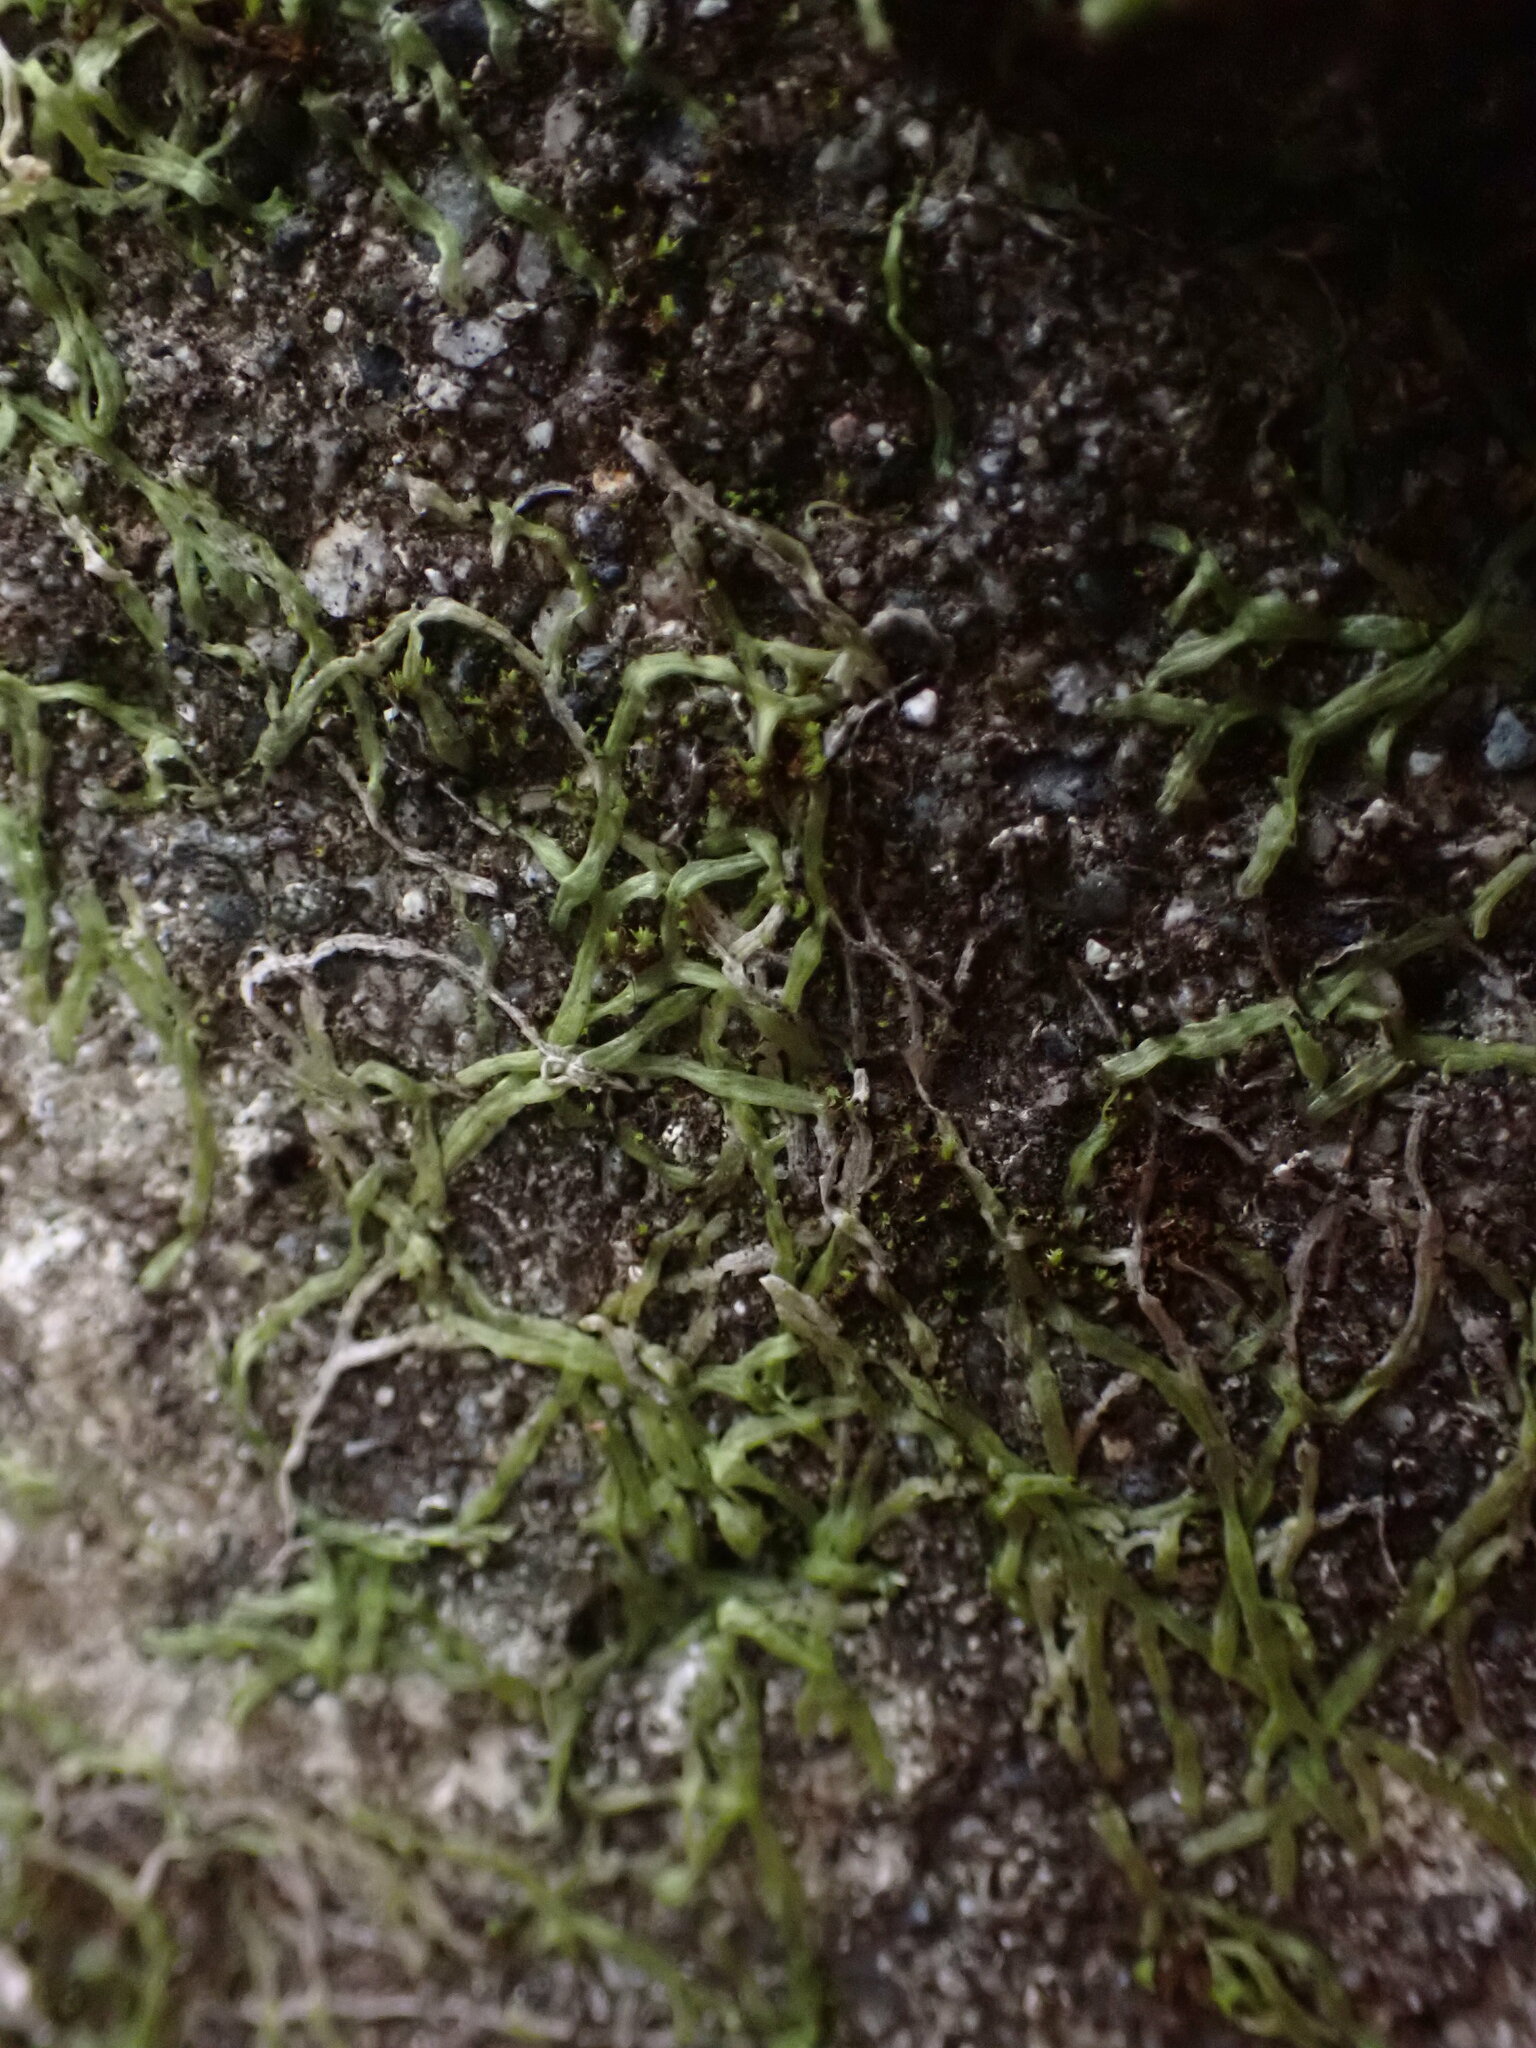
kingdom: Plantae
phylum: Marchantiophyta
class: Jungermanniopsida
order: Metzgeriales
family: Metzgeriaceae
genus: Metzgeria
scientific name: Metzgeria conjugata
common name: Rock veilwort
